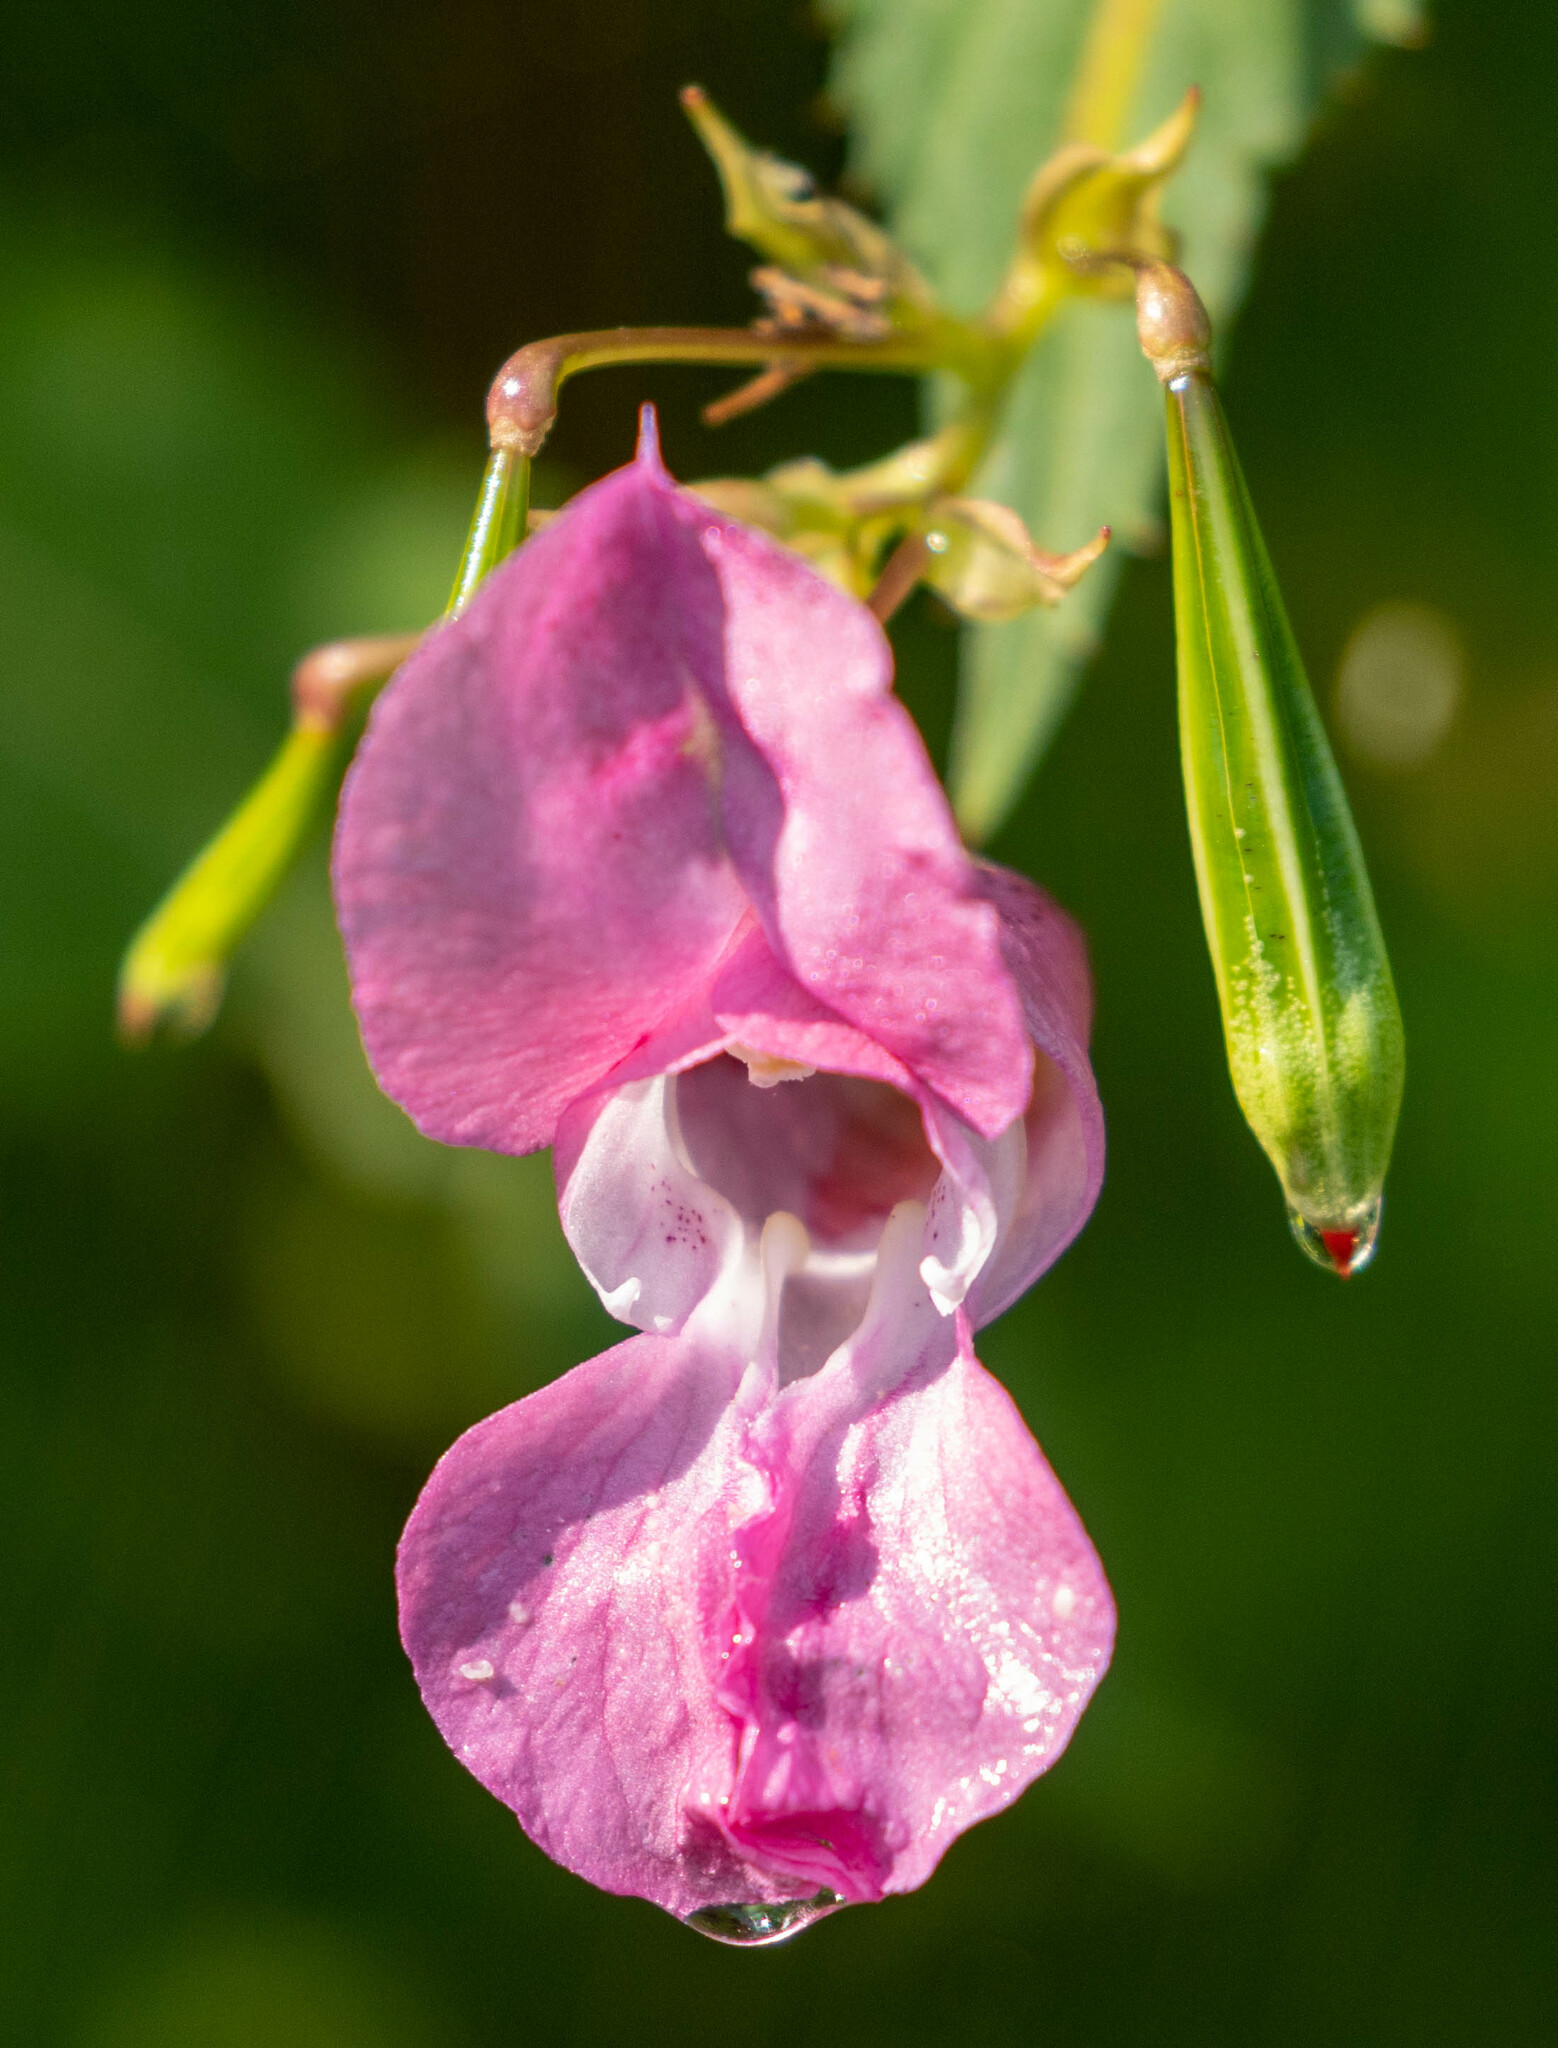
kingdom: Plantae
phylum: Tracheophyta
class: Magnoliopsida
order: Ericales
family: Balsaminaceae
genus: Impatiens
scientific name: Impatiens glandulifera
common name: Himalayan balsam
